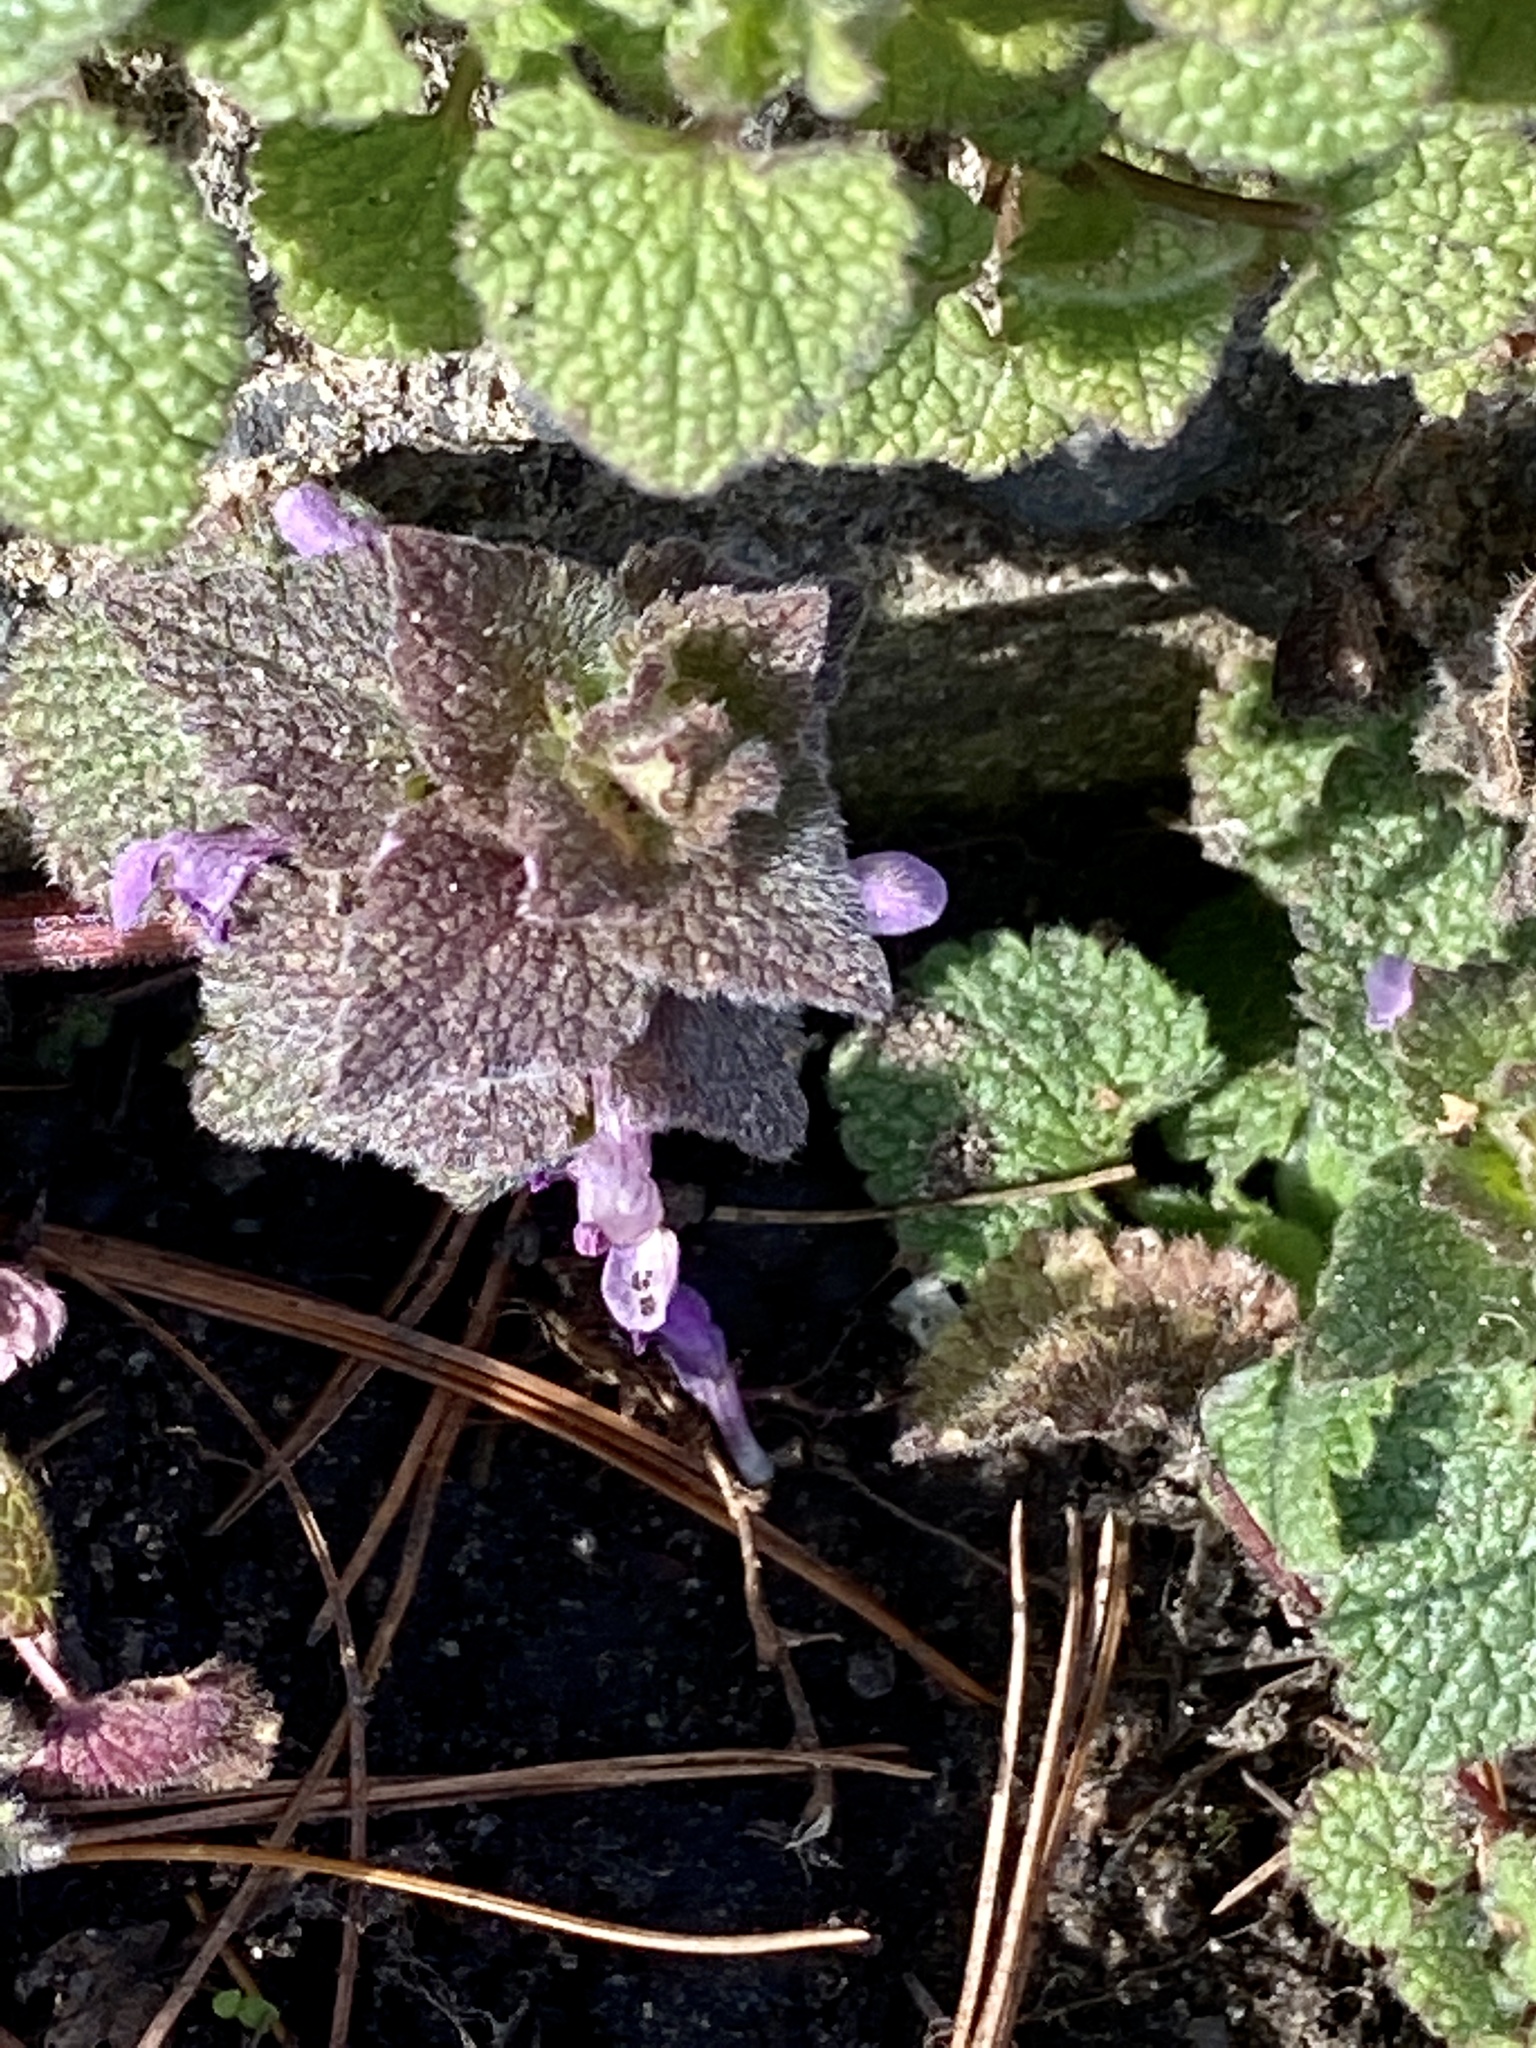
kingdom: Plantae
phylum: Tracheophyta
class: Magnoliopsida
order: Lamiales
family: Lamiaceae
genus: Lamium
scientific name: Lamium purpureum
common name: Red dead-nettle
